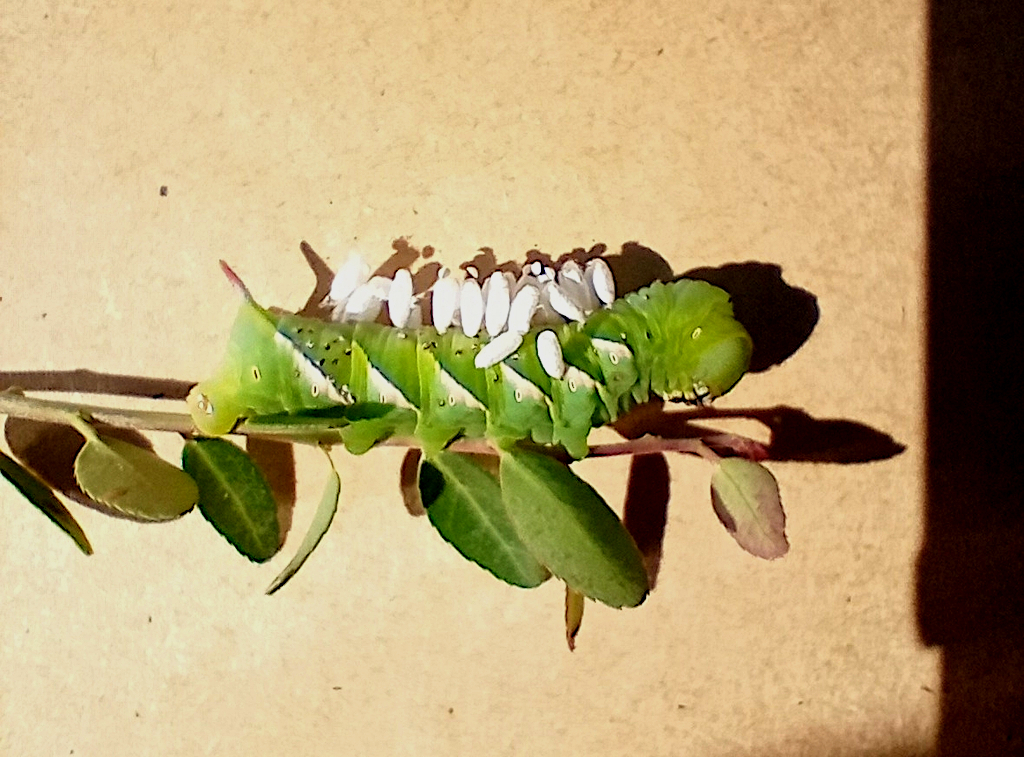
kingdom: Animalia
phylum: Arthropoda
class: Insecta
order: Lepidoptera
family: Sphingidae
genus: Dolba
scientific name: Dolba hyloeus
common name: Pawpaw sphinx
